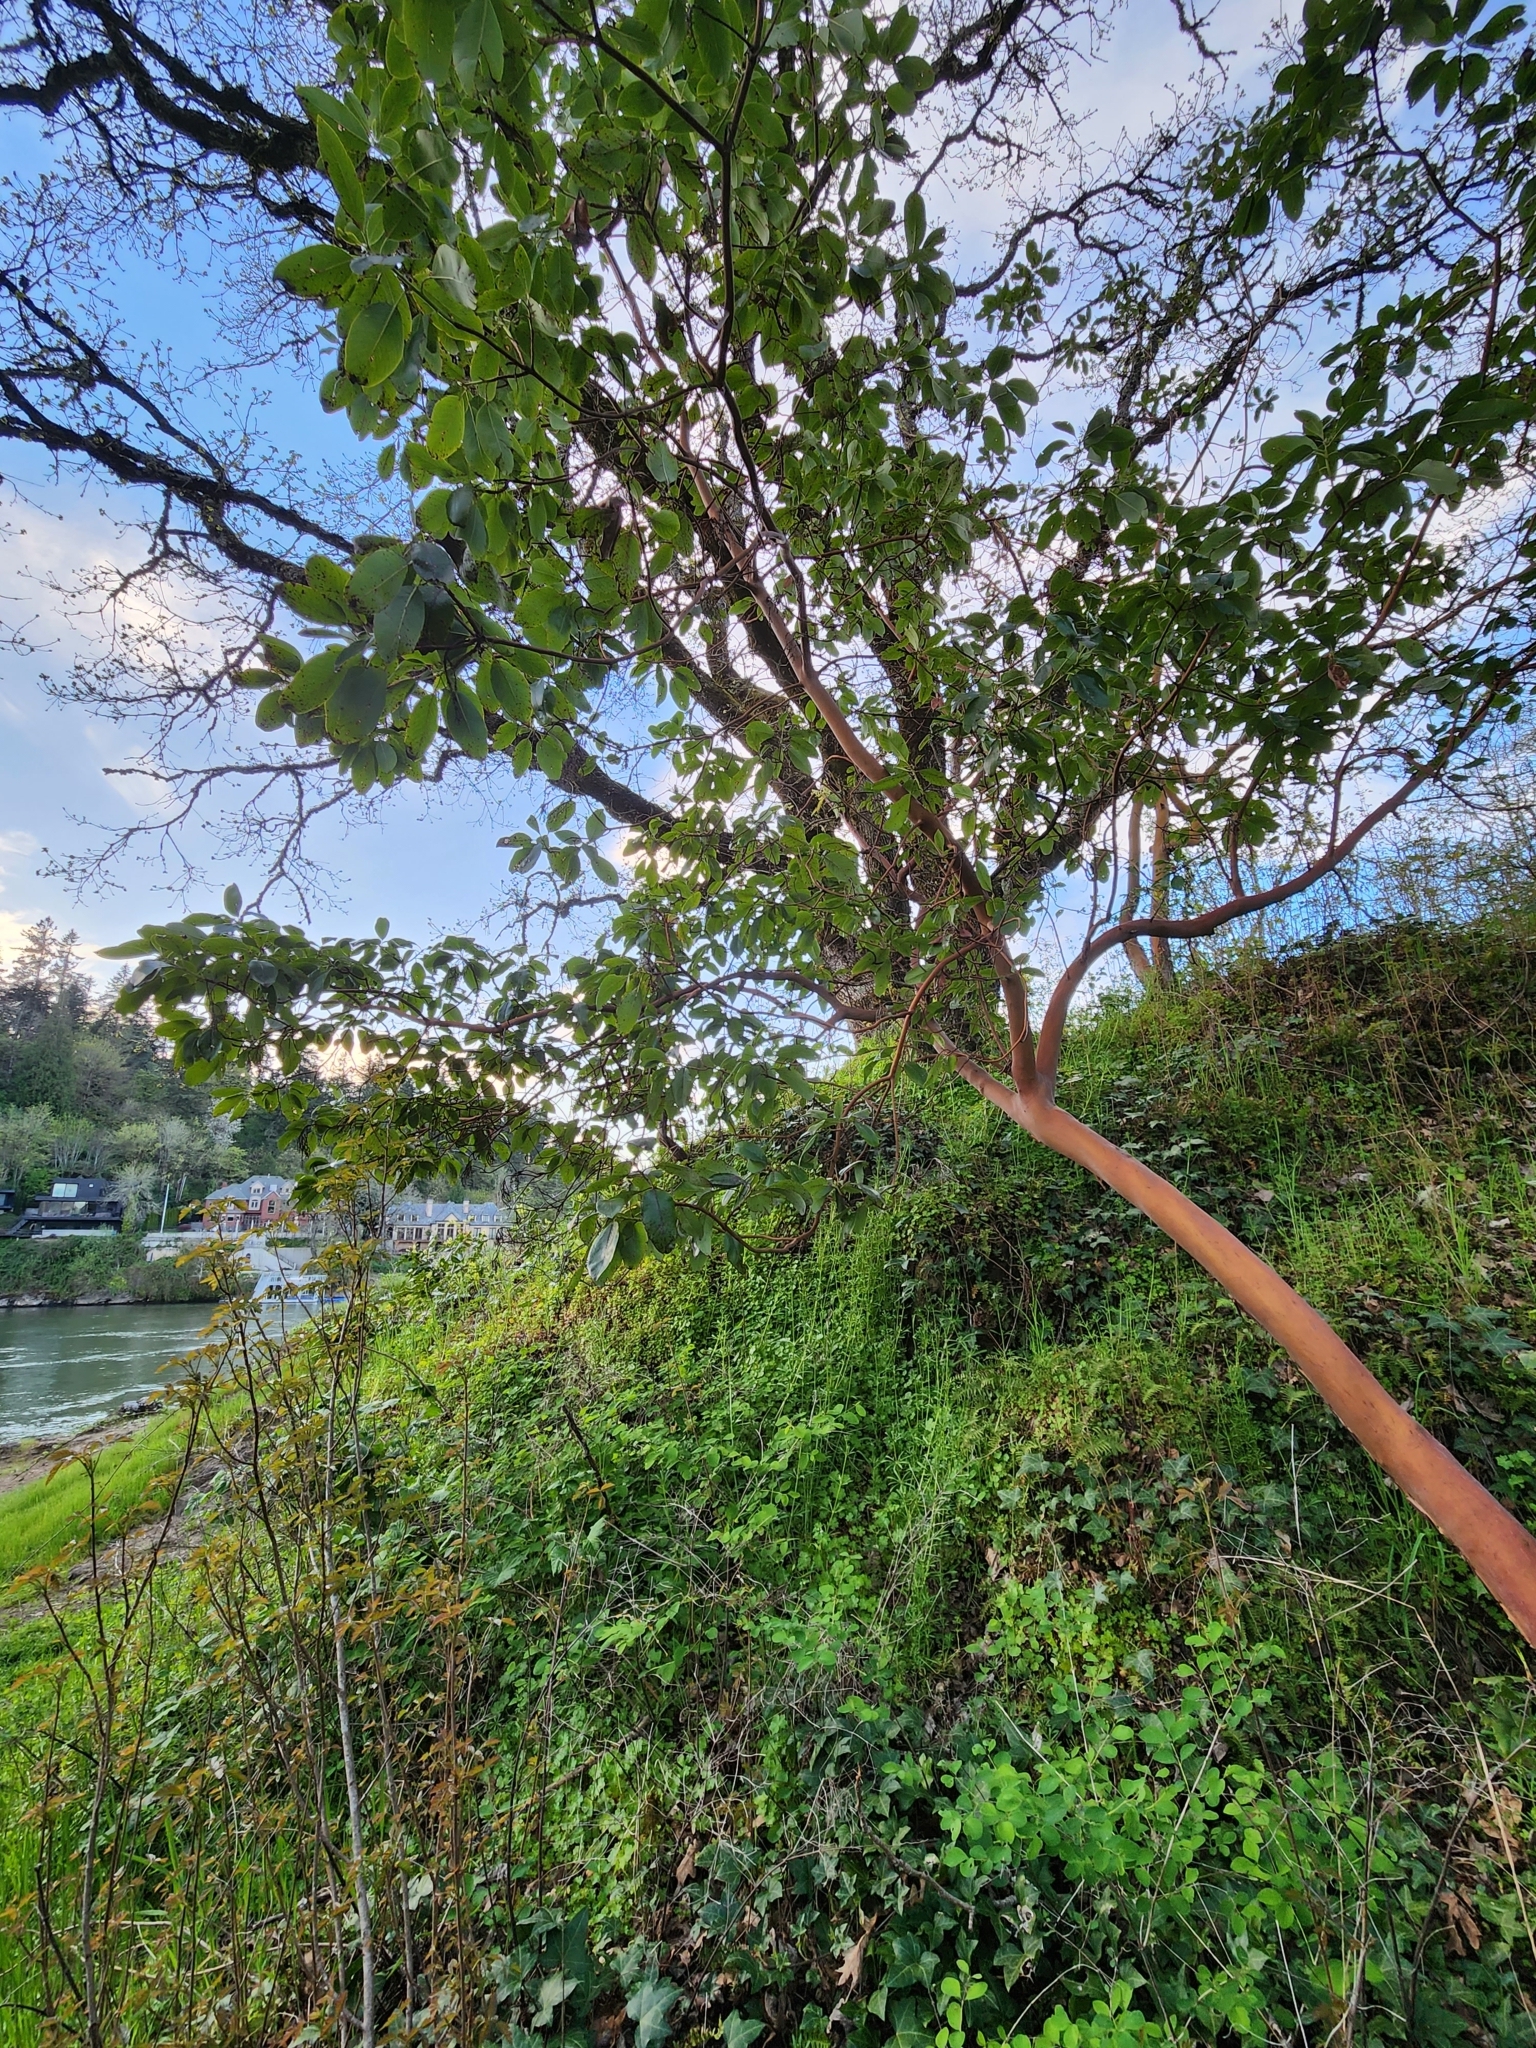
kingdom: Plantae
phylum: Tracheophyta
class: Magnoliopsida
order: Ericales
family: Ericaceae
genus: Arbutus
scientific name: Arbutus menziesii
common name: Pacific madrone
